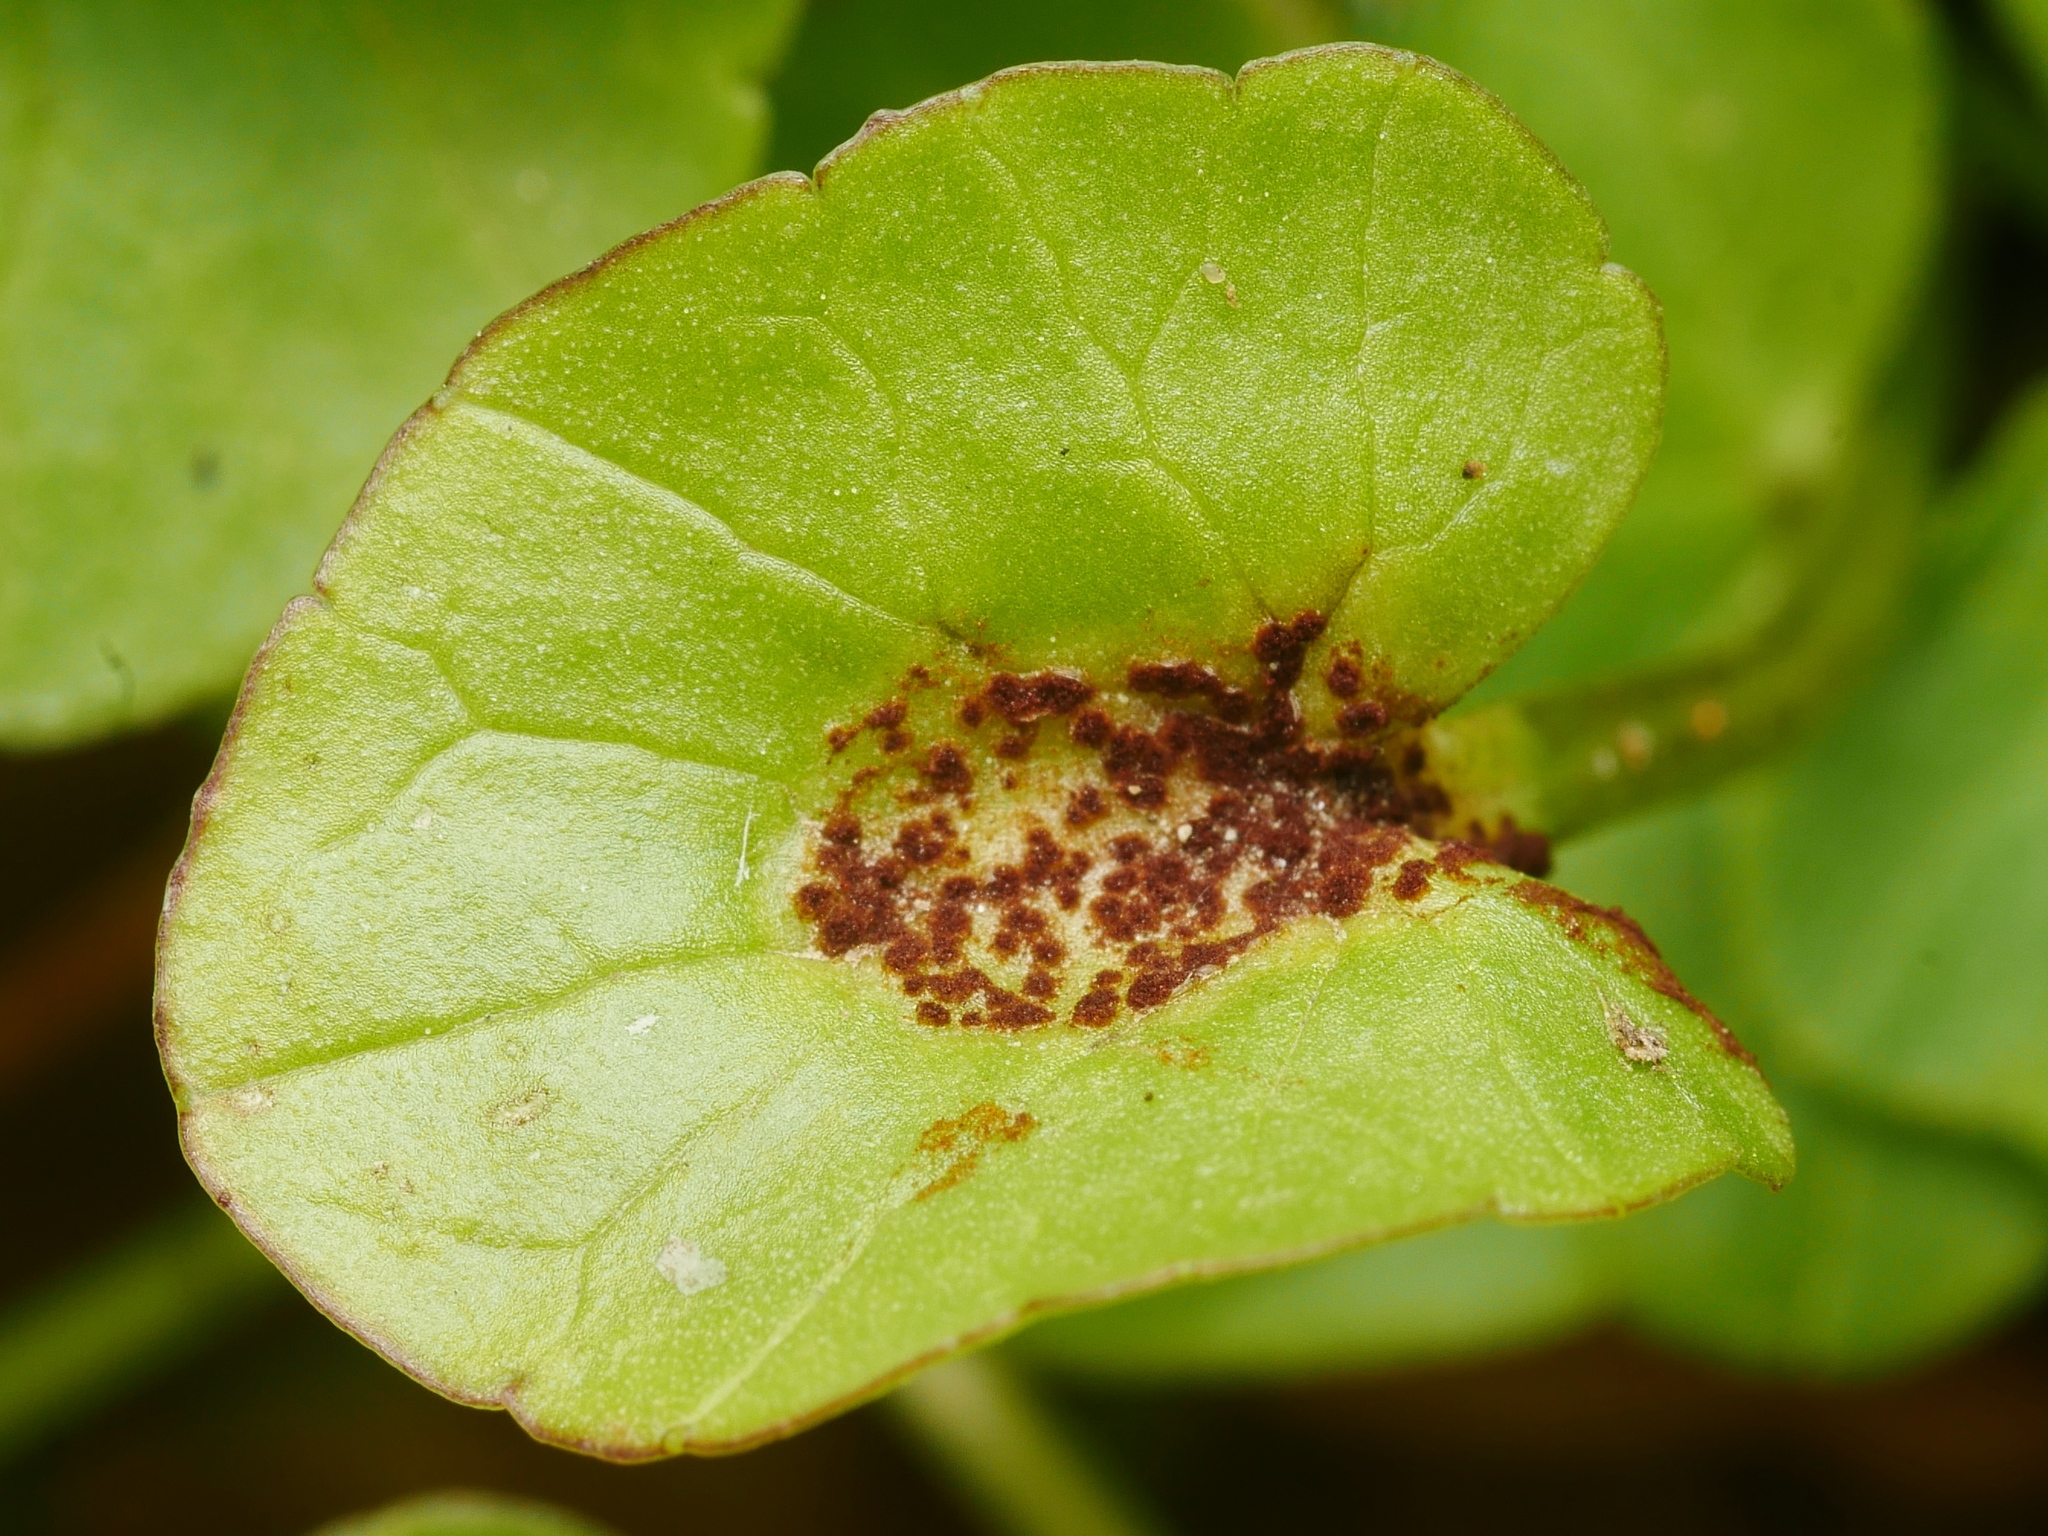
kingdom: Fungi
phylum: Basidiomycota
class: Pucciniomycetes
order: Pucciniales
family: Pucciniaceae
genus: Uromyces
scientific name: Uromyces ficariae
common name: Bitter chocolate rust
